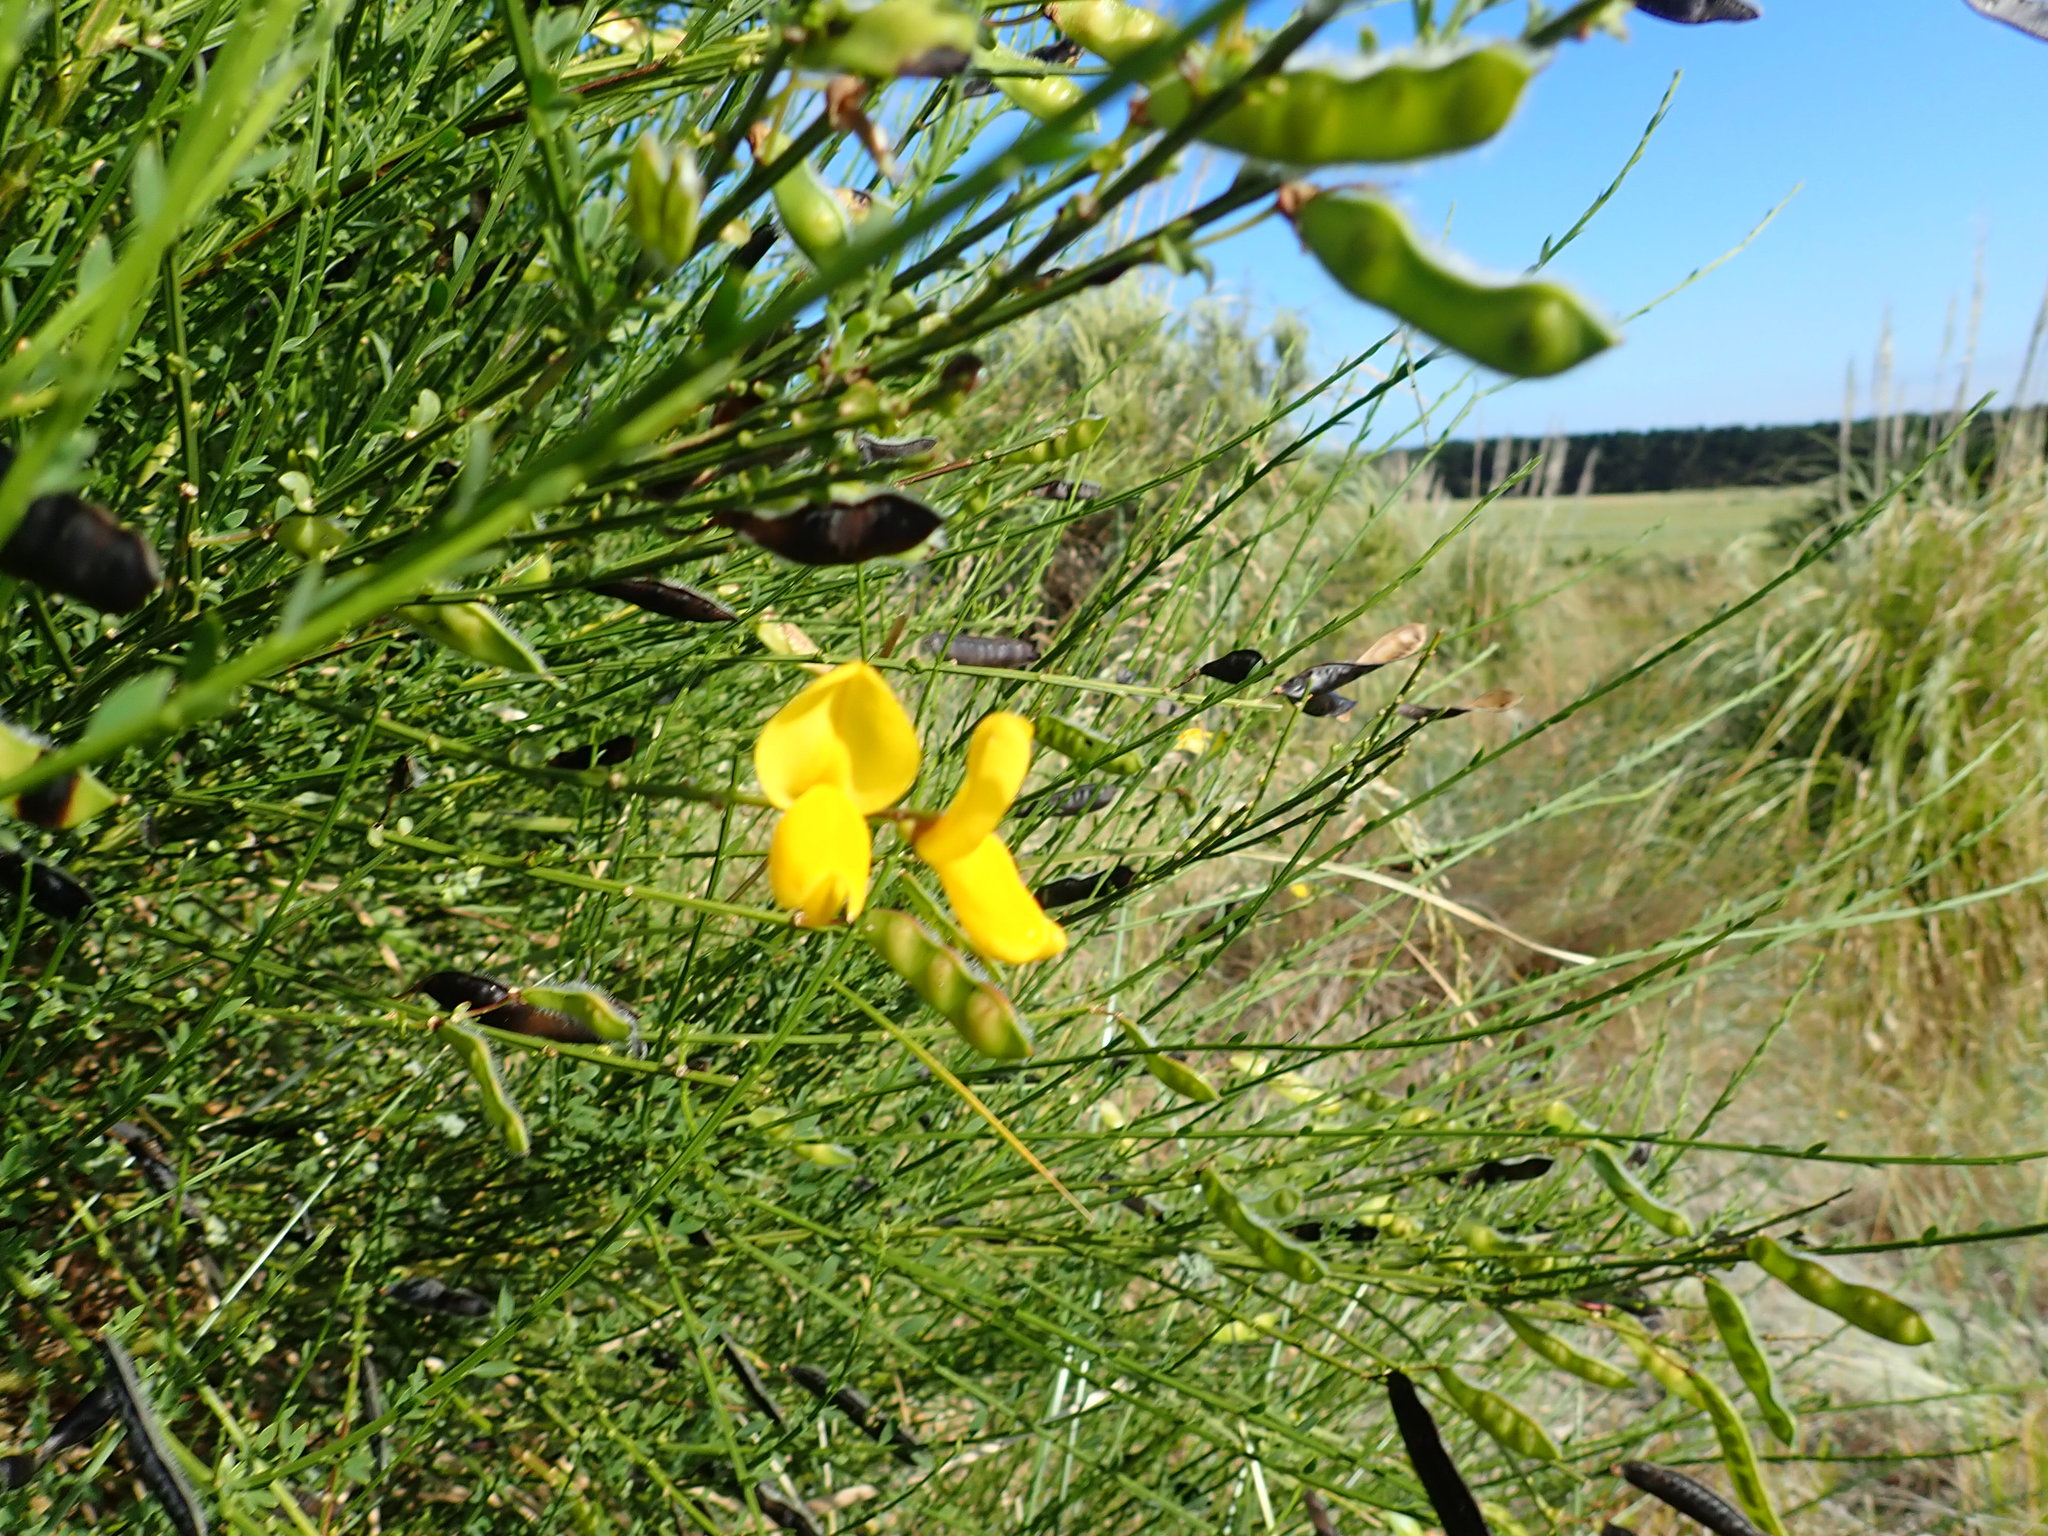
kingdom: Plantae
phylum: Tracheophyta
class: Magnoliopsida
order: Fabales
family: Fabaceae
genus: Cytisus
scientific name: Cytisus scoparius
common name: Scotch broom
